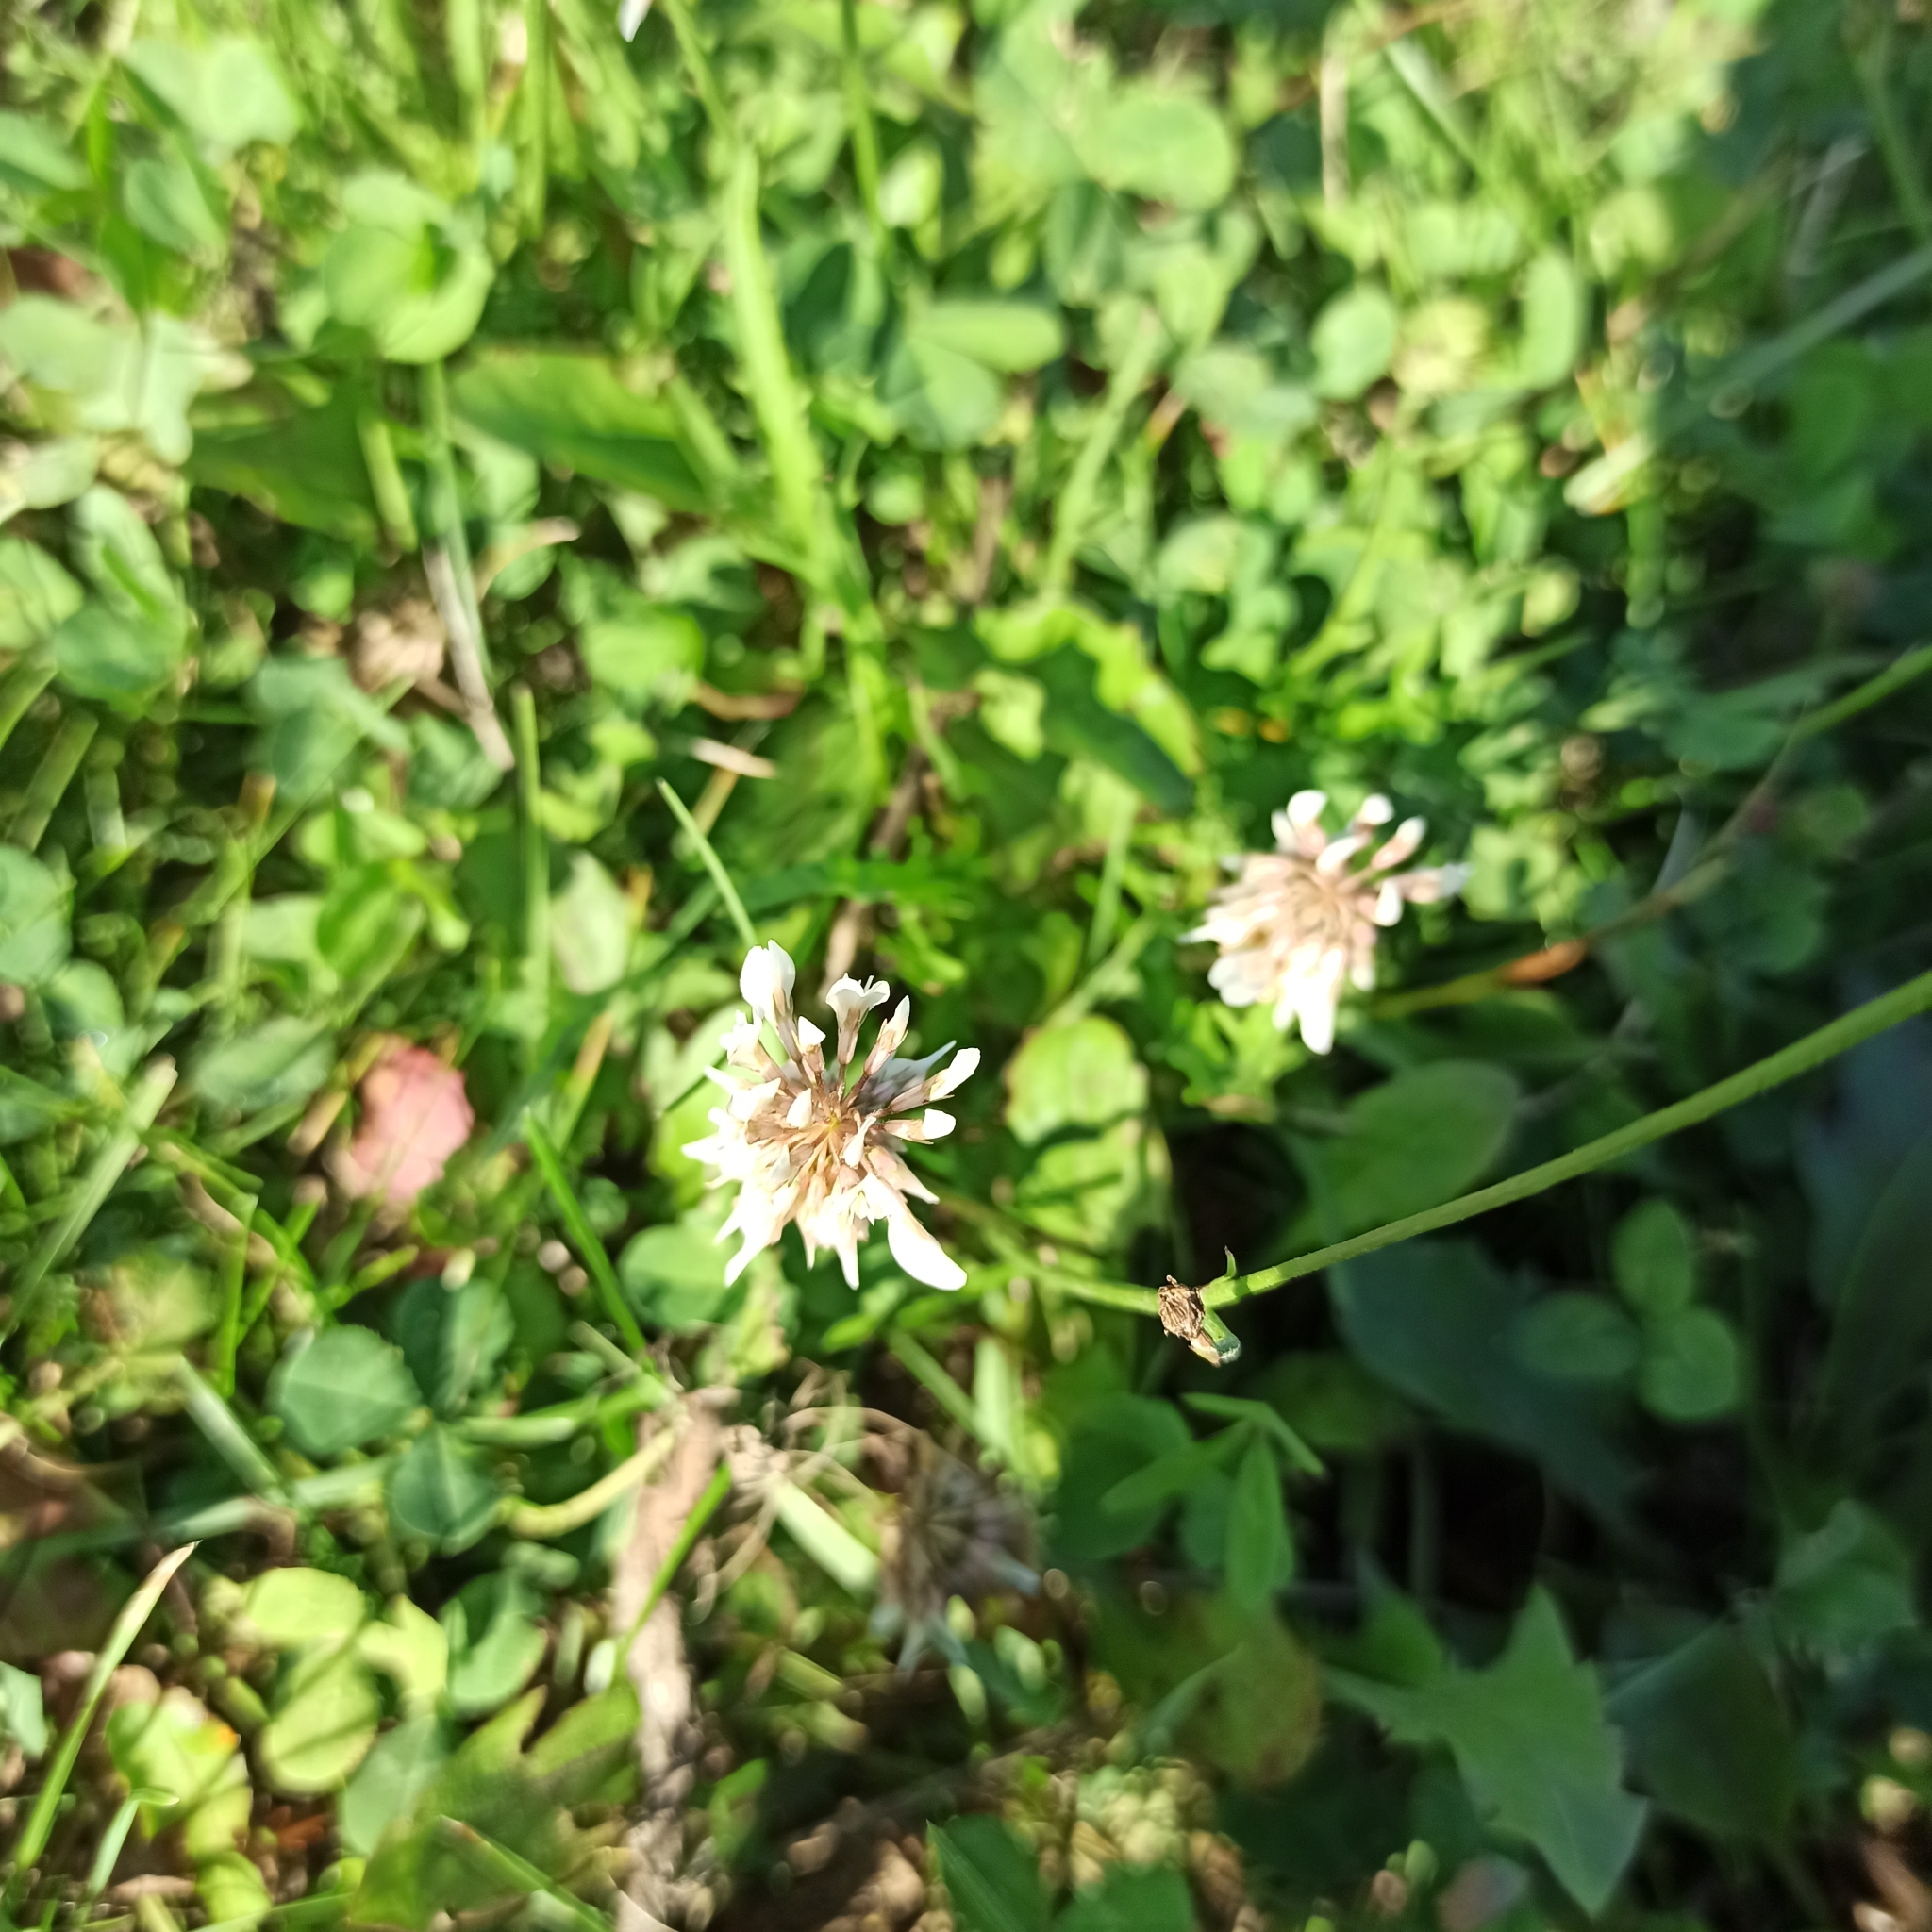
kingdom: Plantae
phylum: Tracheophyta
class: Magnoliopsida
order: Fabales
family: Fabaceae
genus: Trifolium
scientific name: Trifolium repens
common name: White clover
